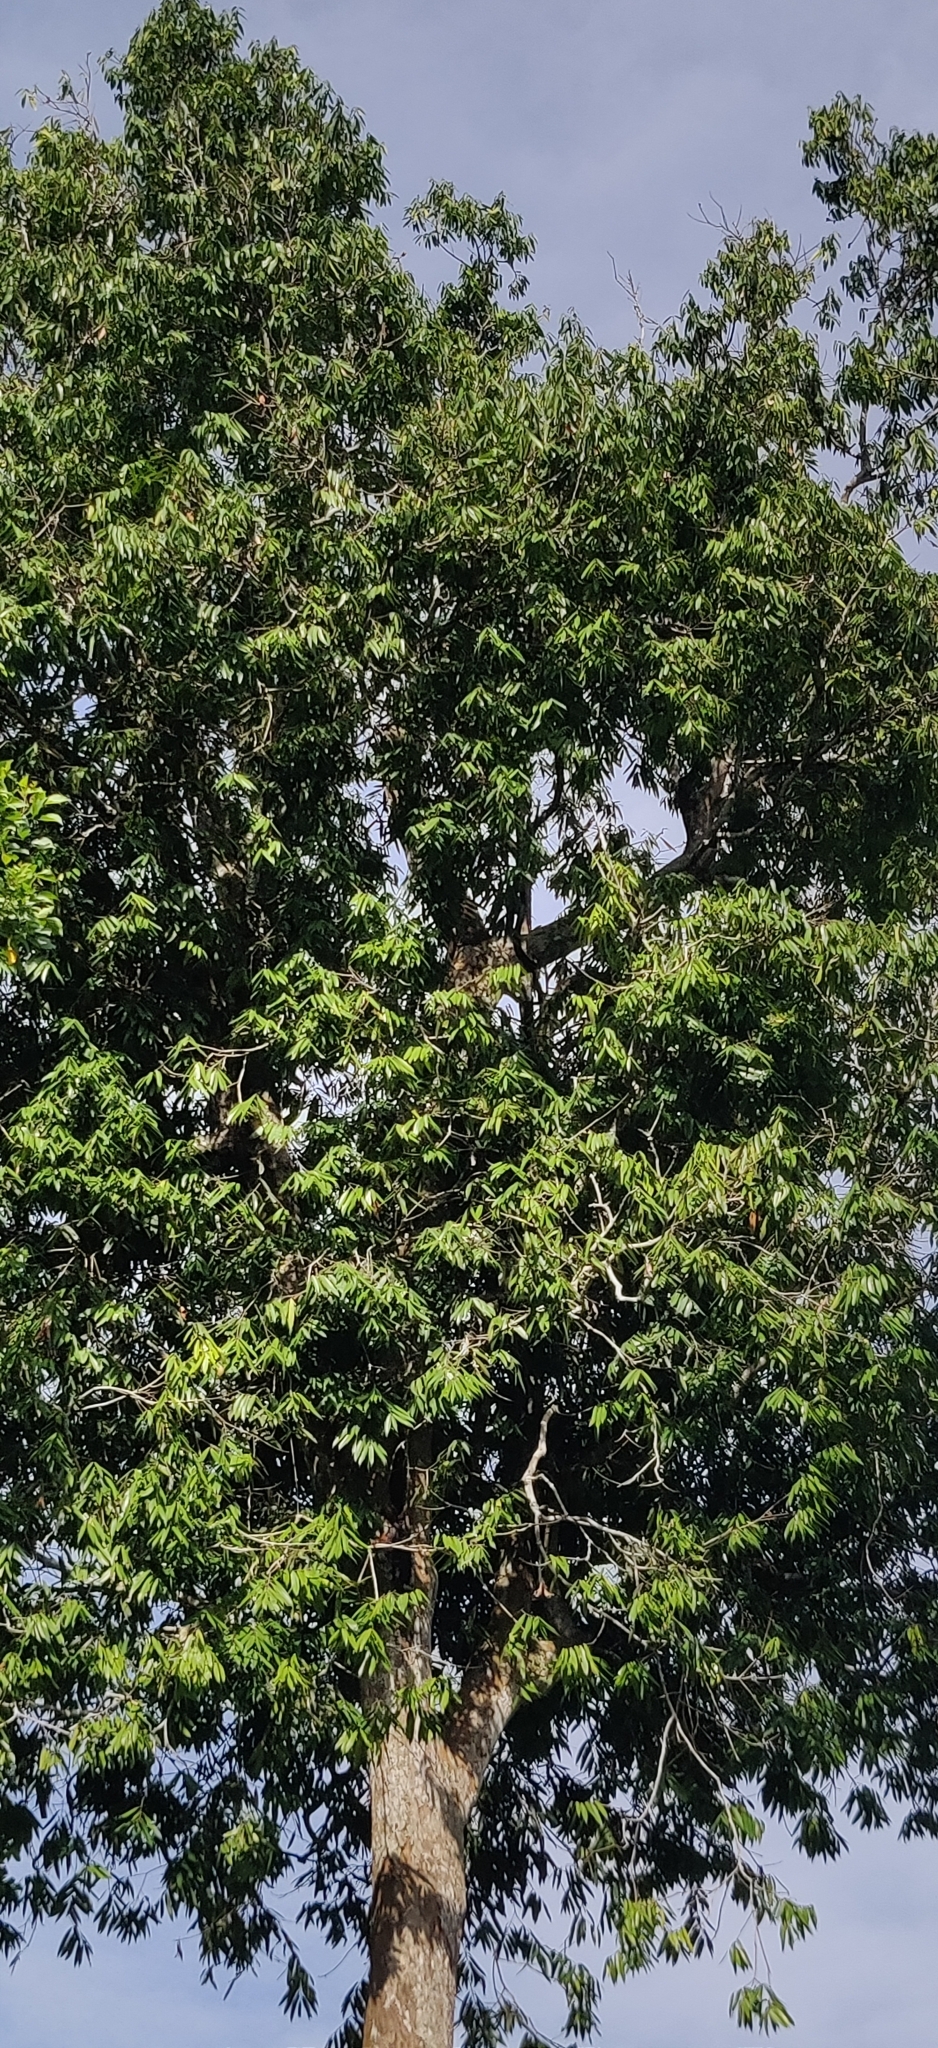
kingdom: Plantae
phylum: Tracheophyta
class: Magnoliopsida
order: Malpighiales
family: Calophyllaceae
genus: Mesua
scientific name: Mesua ferrea
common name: Mesua
